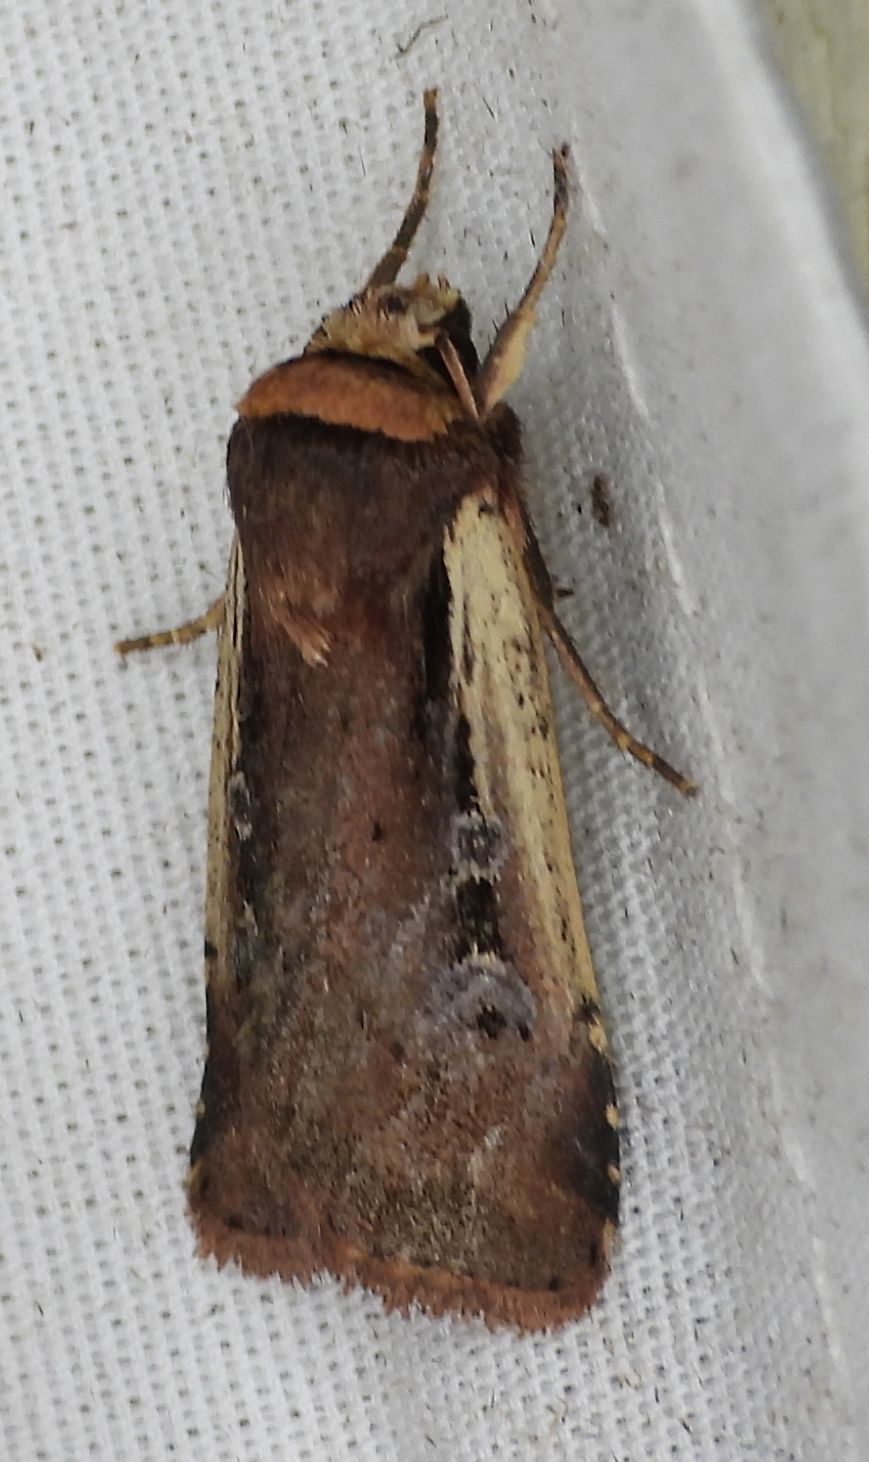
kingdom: Animalia
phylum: Arthropoda
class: Insecta
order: Lepidoptera
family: Noctuidae
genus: Ochropleura
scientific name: Ochropleura implecta
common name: Flame-shouldered dart
